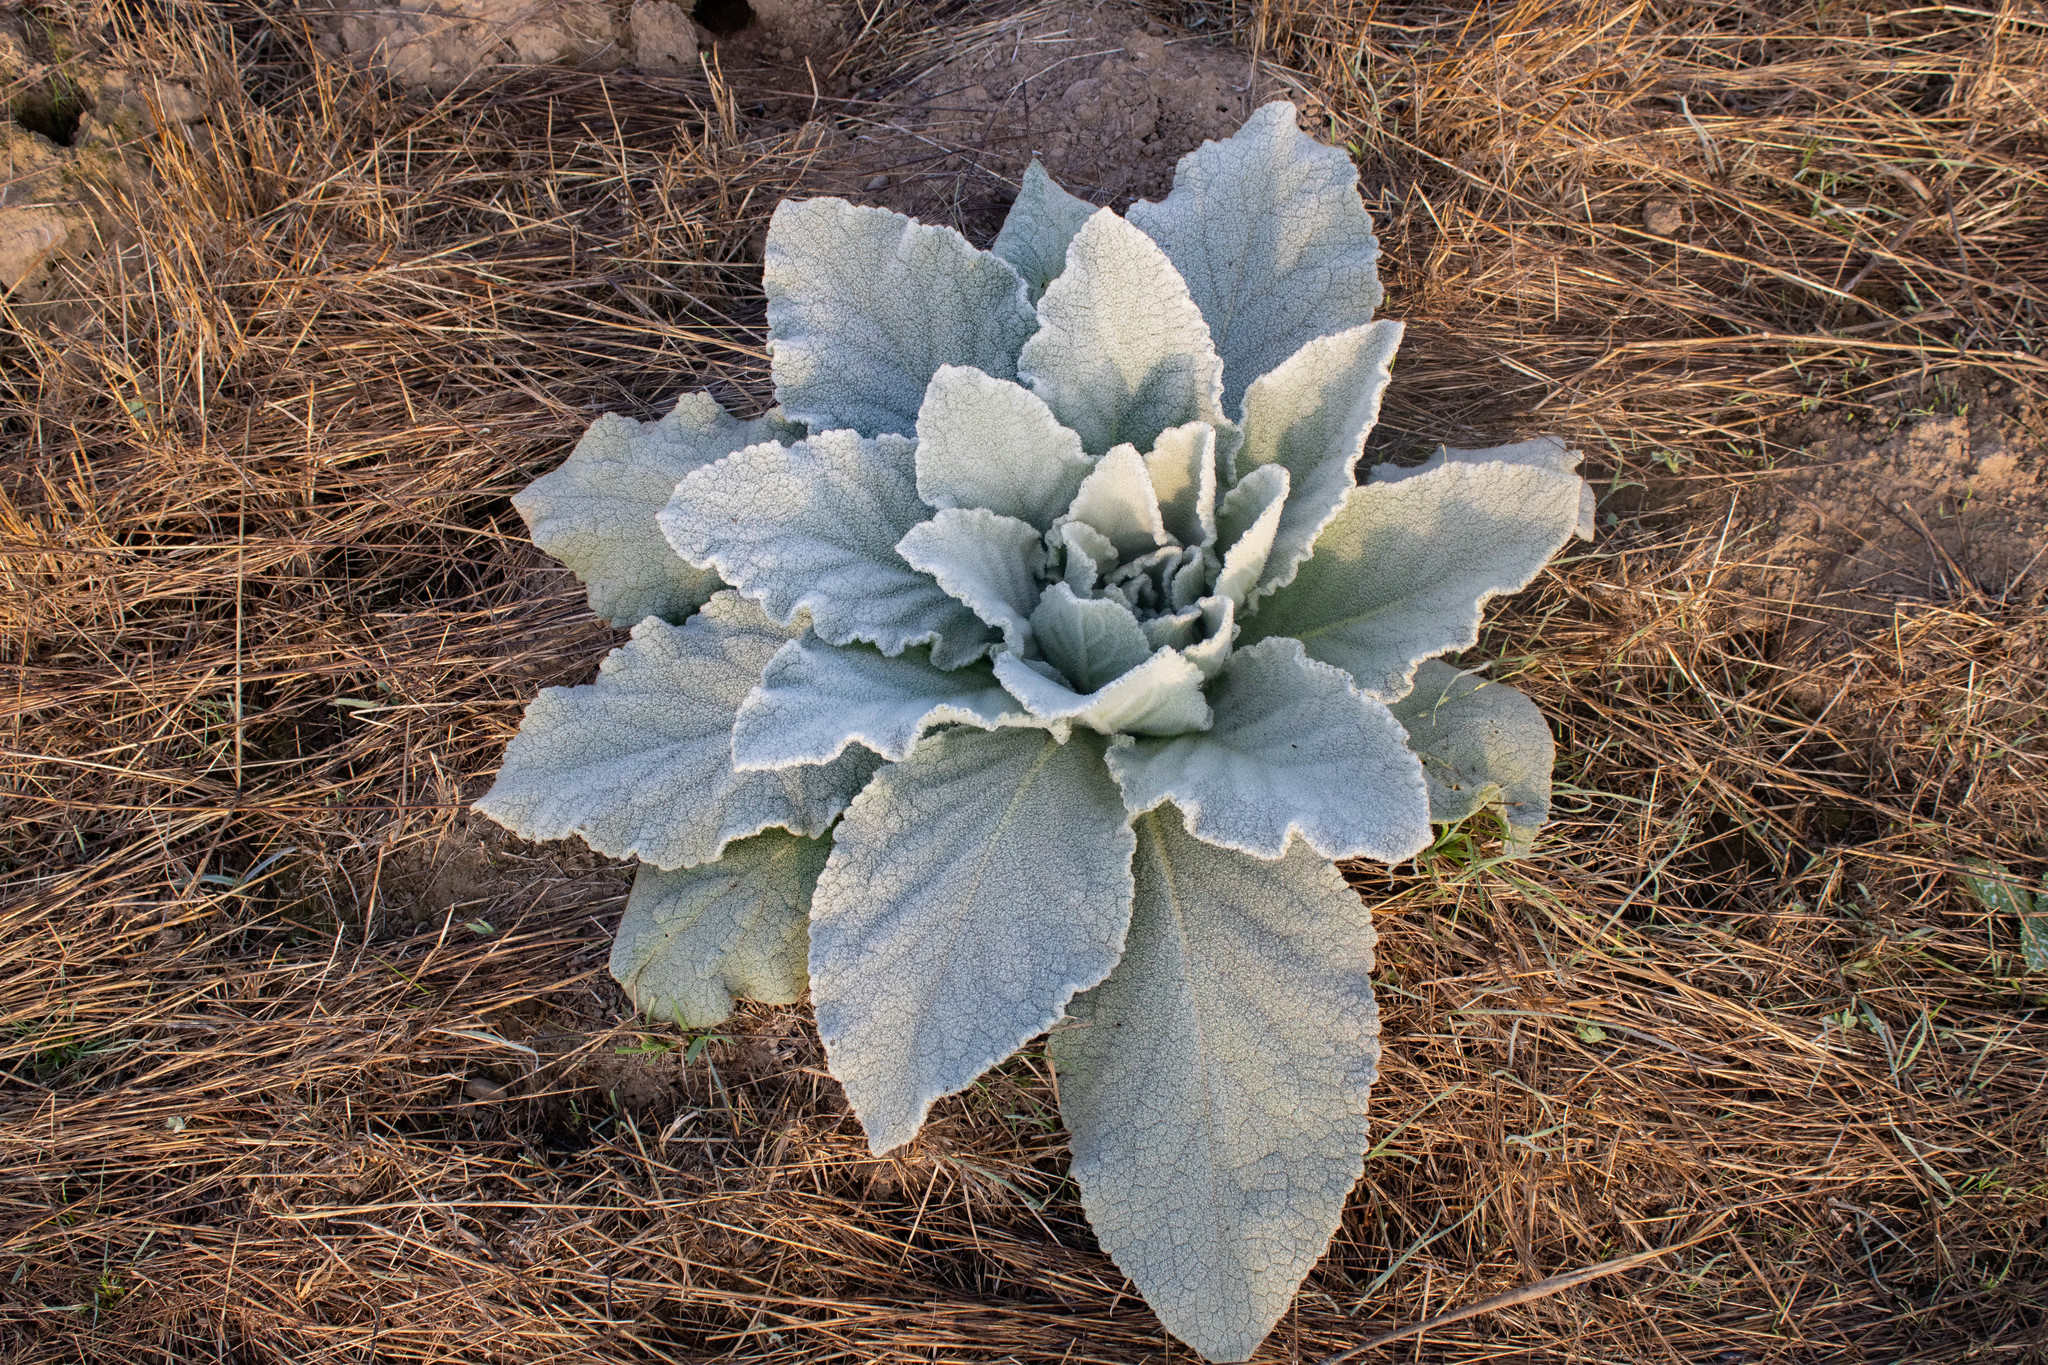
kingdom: Plantae
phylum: Tracheophyta
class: Magnoliopsida
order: Lamiales
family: Scrophulariaceae
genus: Verbascum
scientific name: Verbascum thapsus
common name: Common mullein
